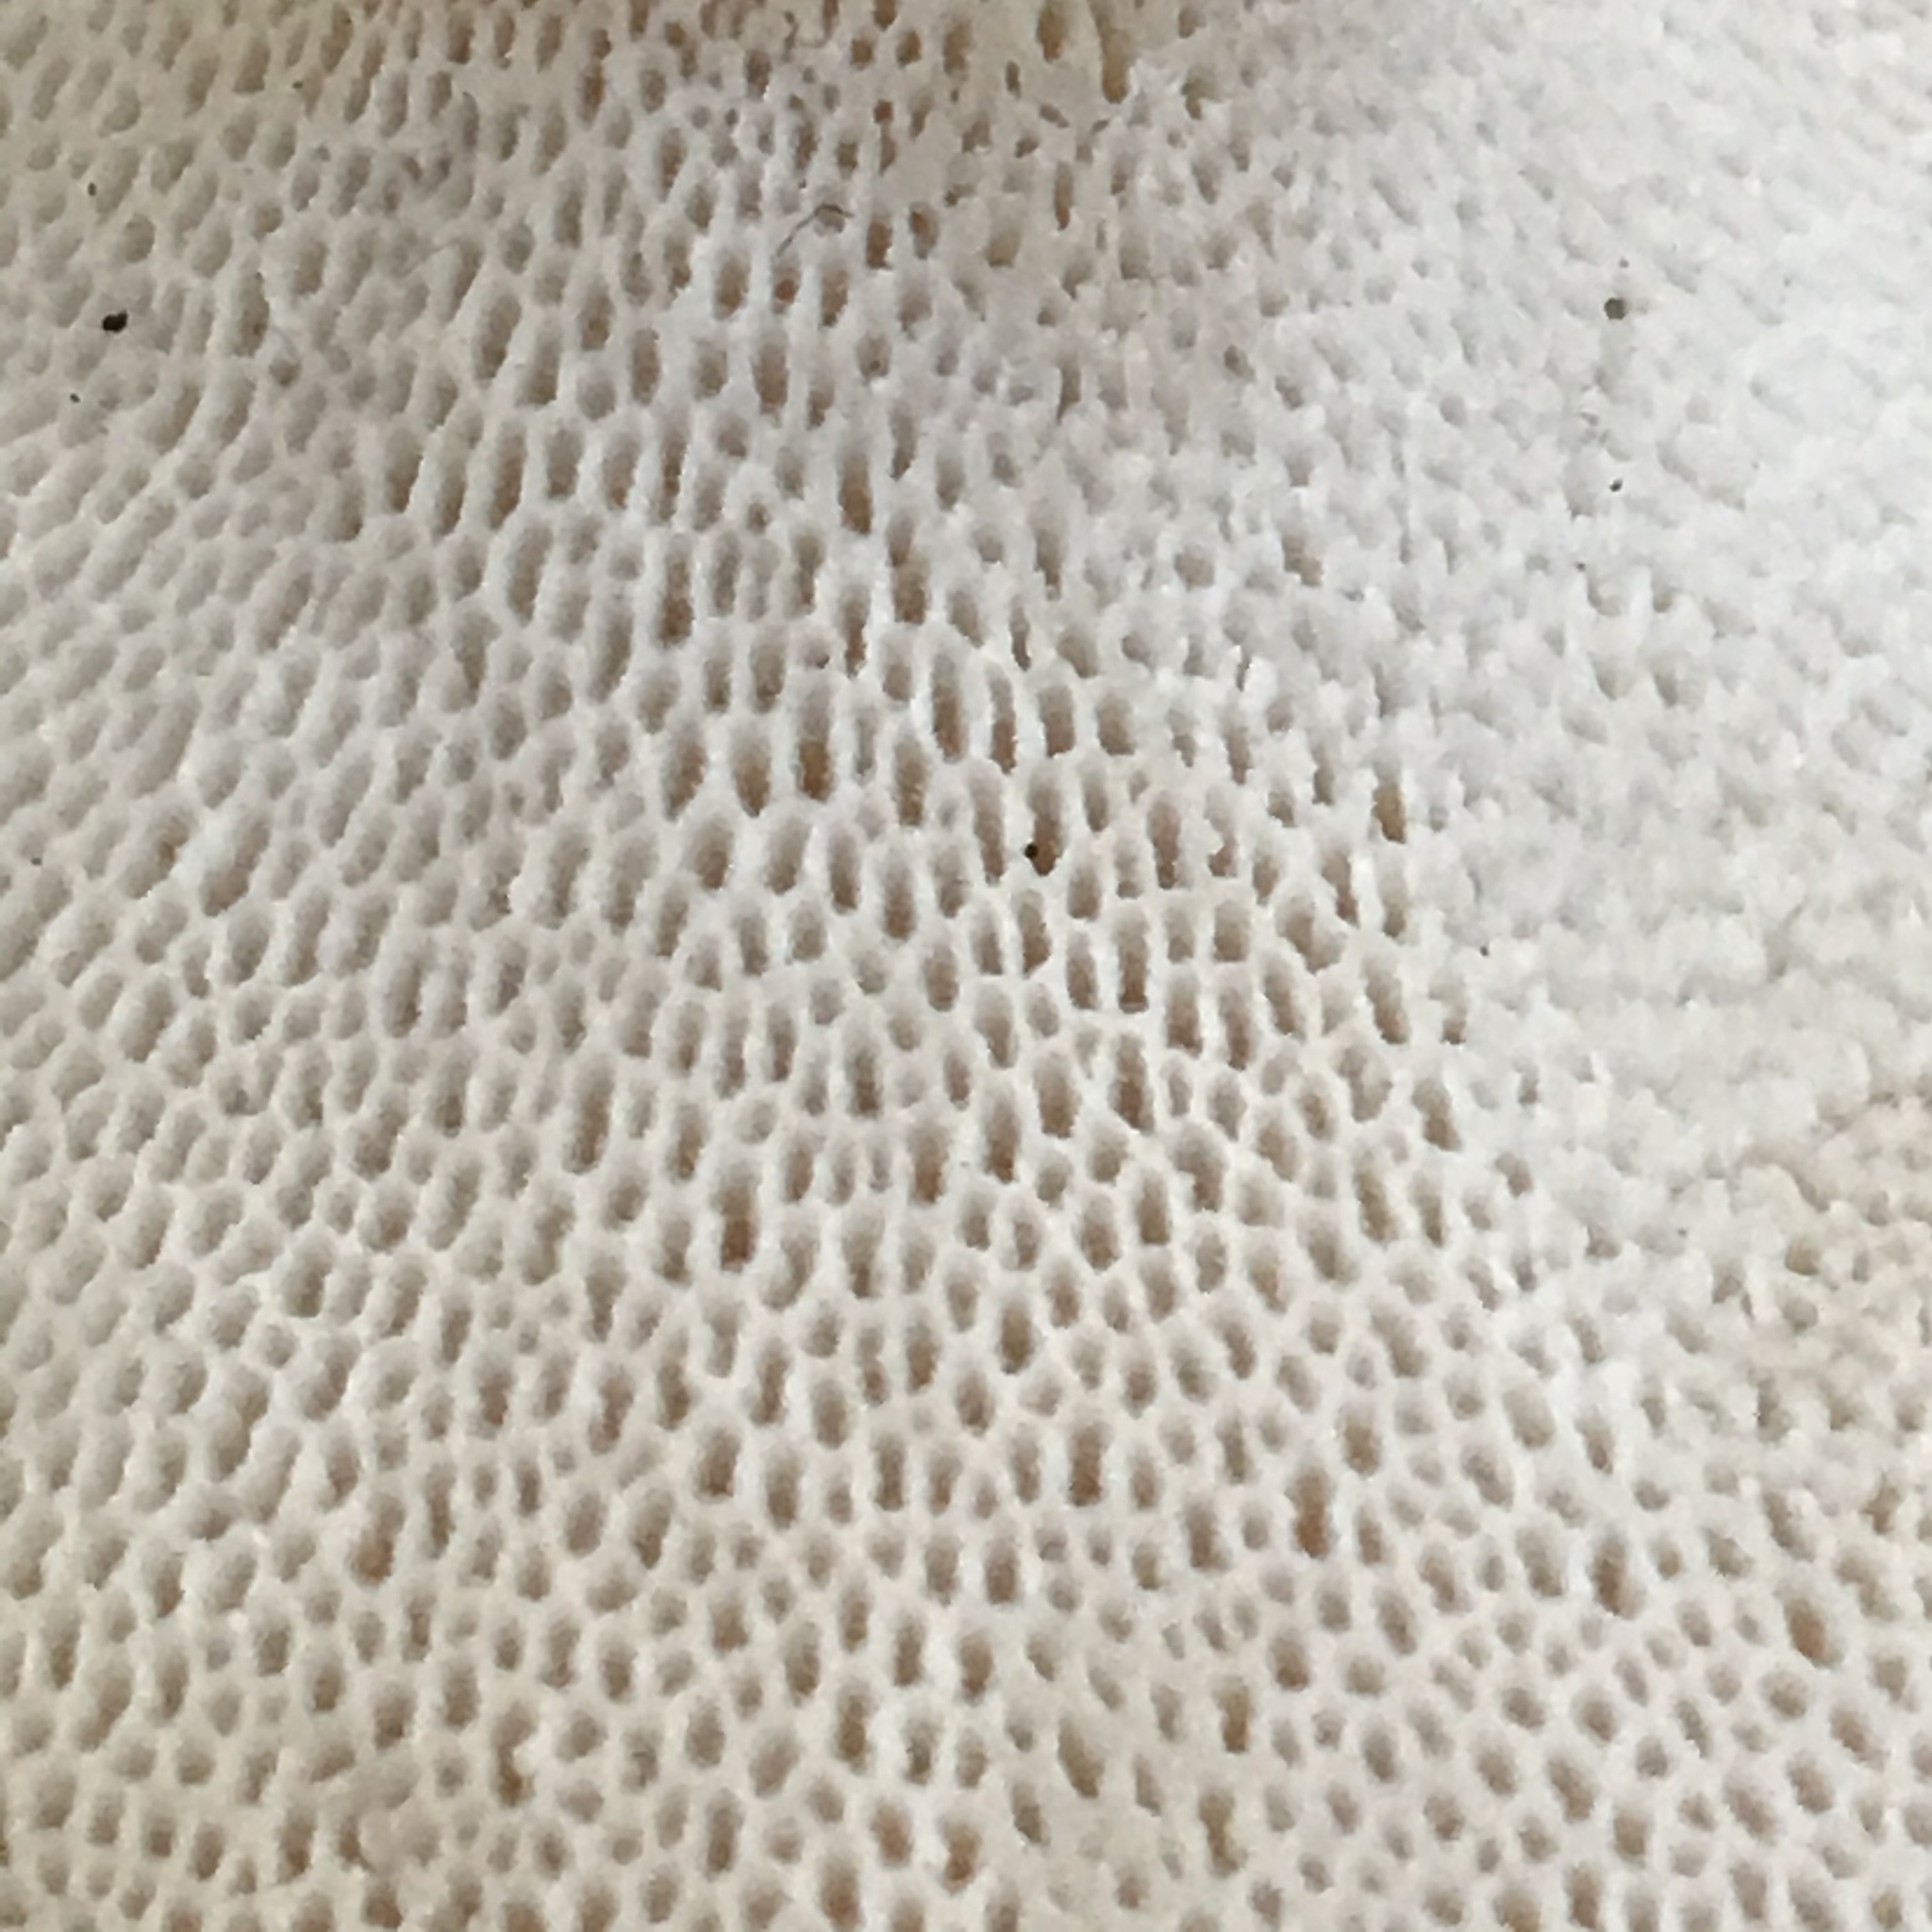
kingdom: Fungi
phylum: Basidiomycota
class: Agaricomycetes
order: Polyporales
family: Polyporaceae
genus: Polyporus
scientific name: Polyporus radicatus
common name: Rooting polypore
